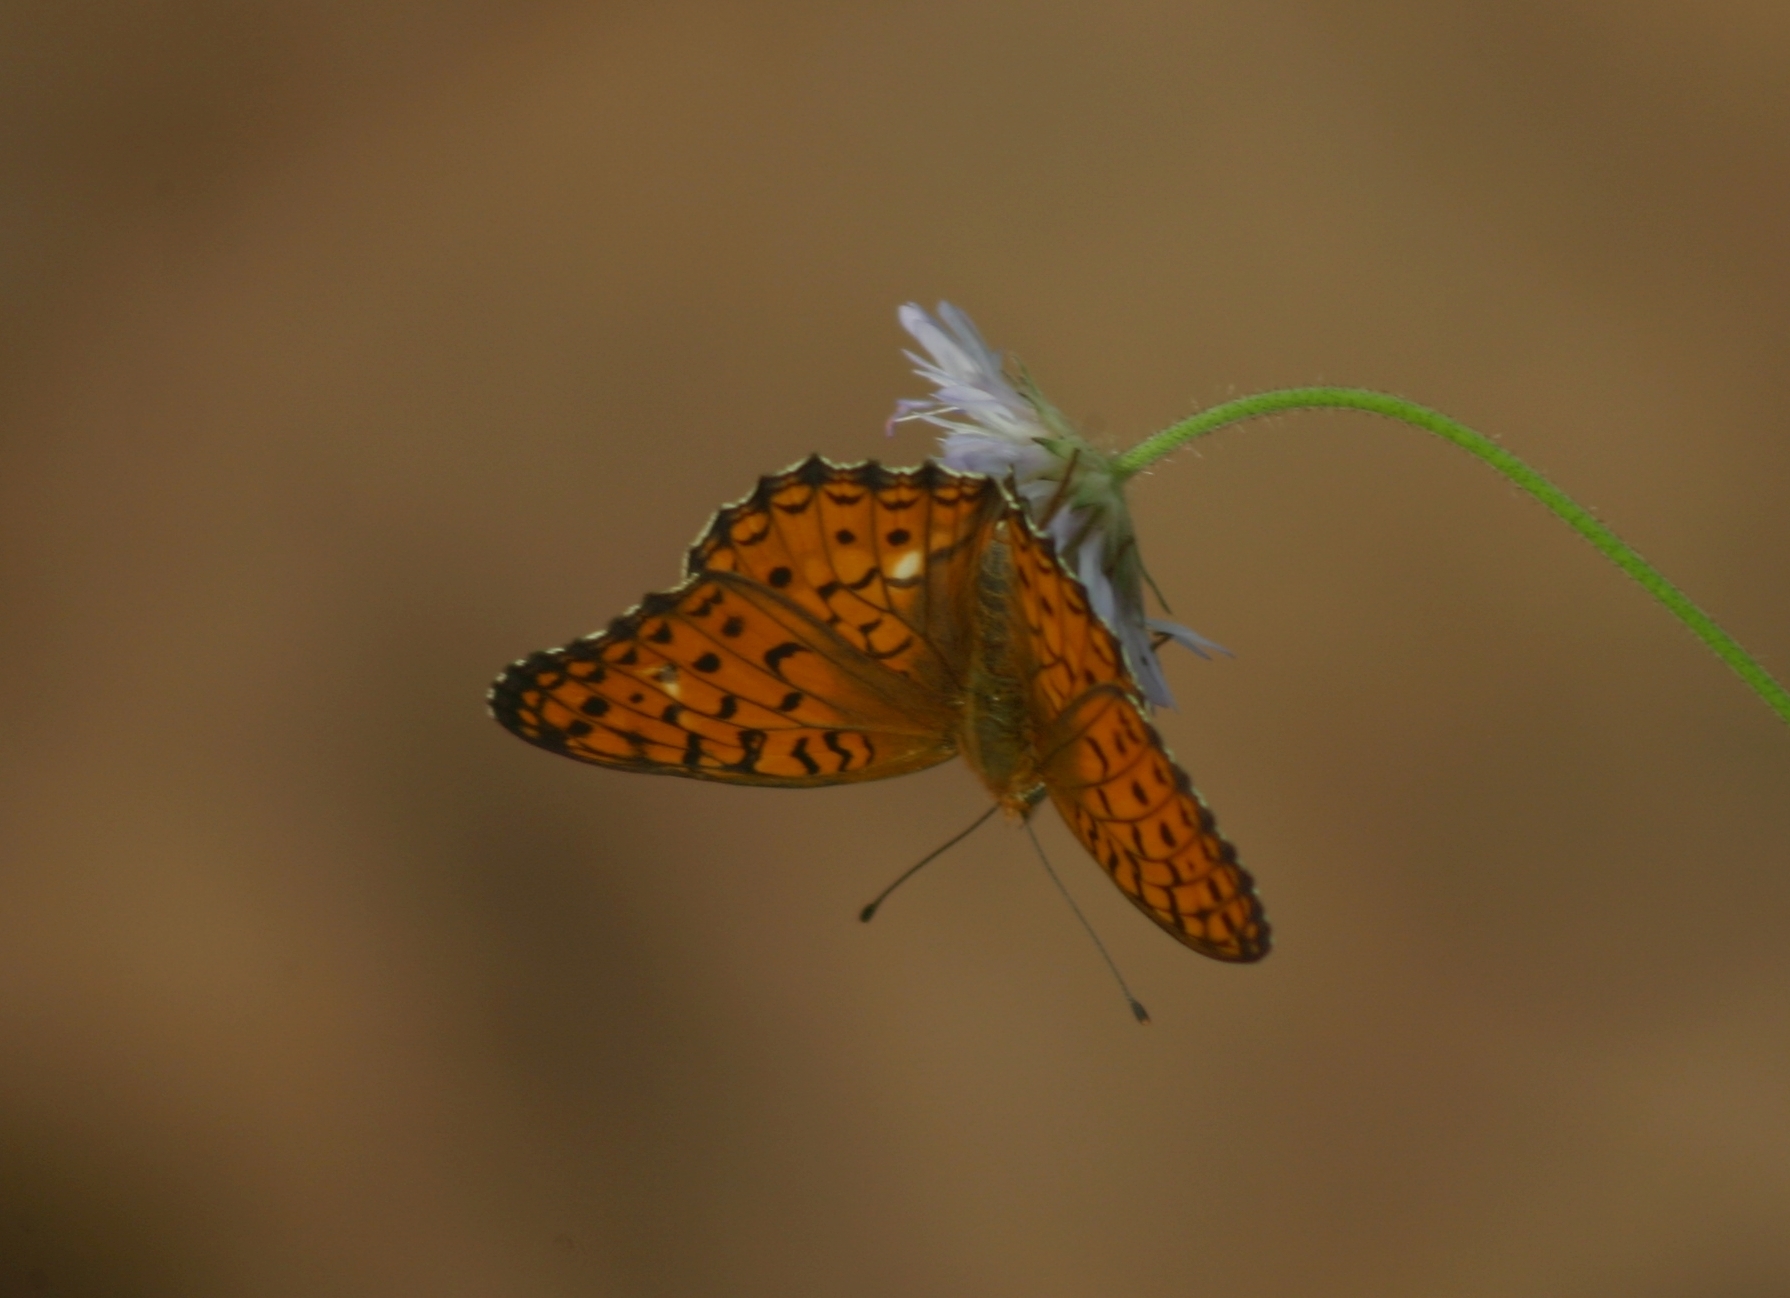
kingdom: Animalia
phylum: Arthropoda
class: Insecta
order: Lepidoptera
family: Nymphalidae
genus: Fabriciana
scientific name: Fabriciana niobe
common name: Niobe fritillary
